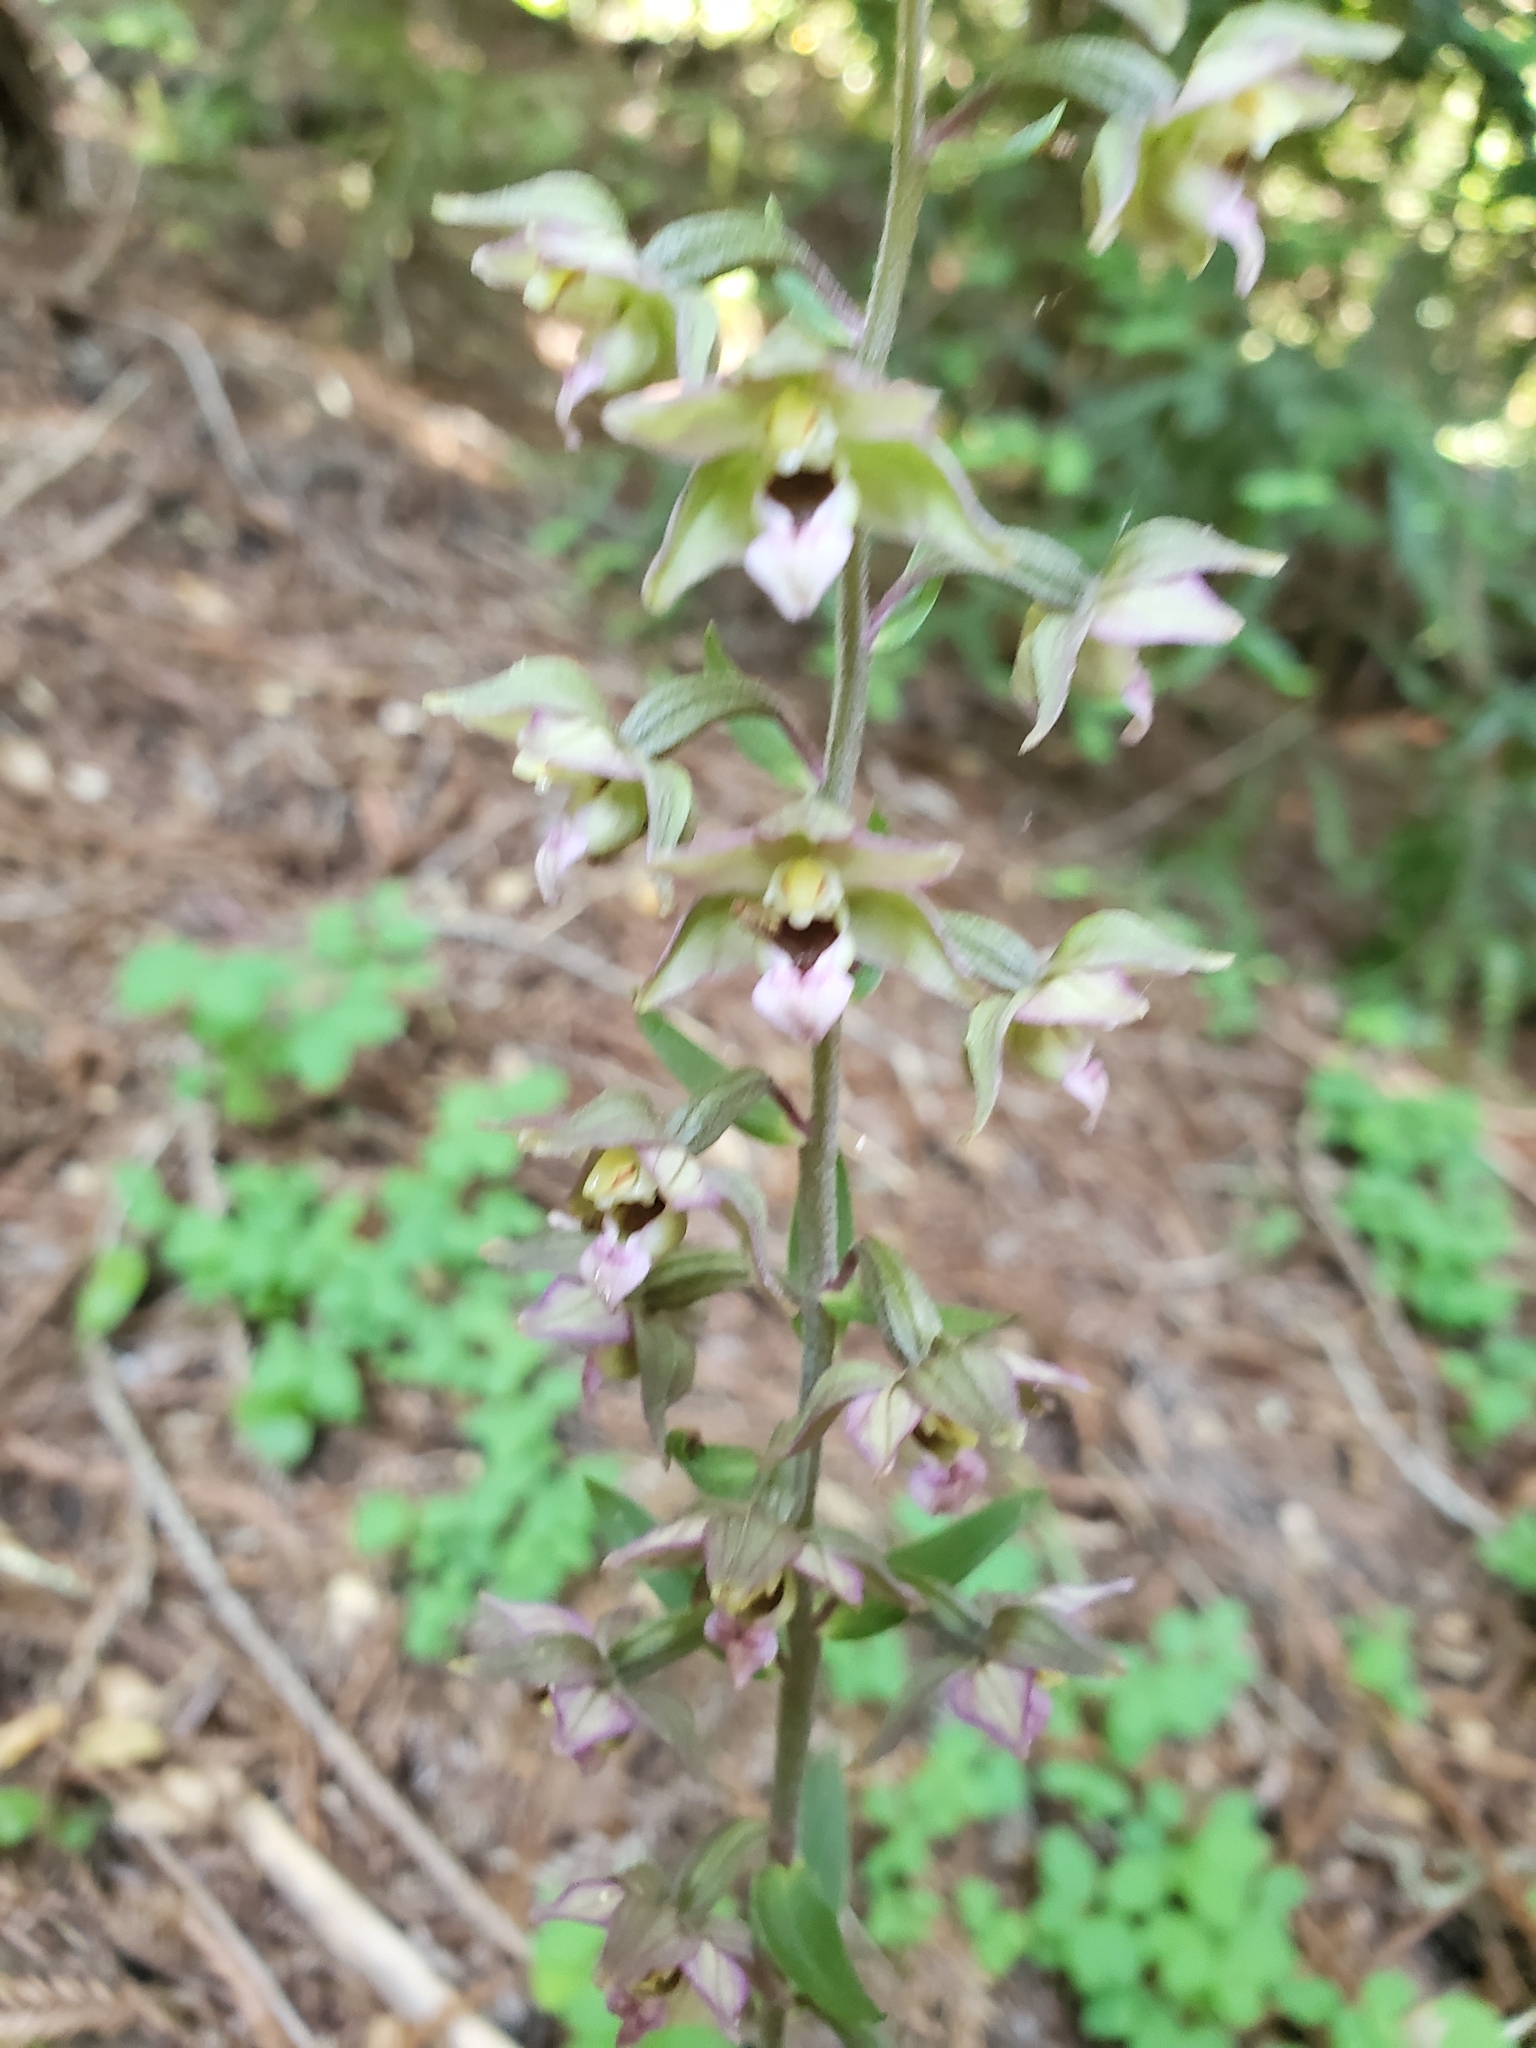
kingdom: Plantae
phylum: Tracheophyta
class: Liliopsida
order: Asparagales
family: Orchidaceae
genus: Epipactis
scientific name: Epipactis helleborine
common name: Broad-leaved helleborine
